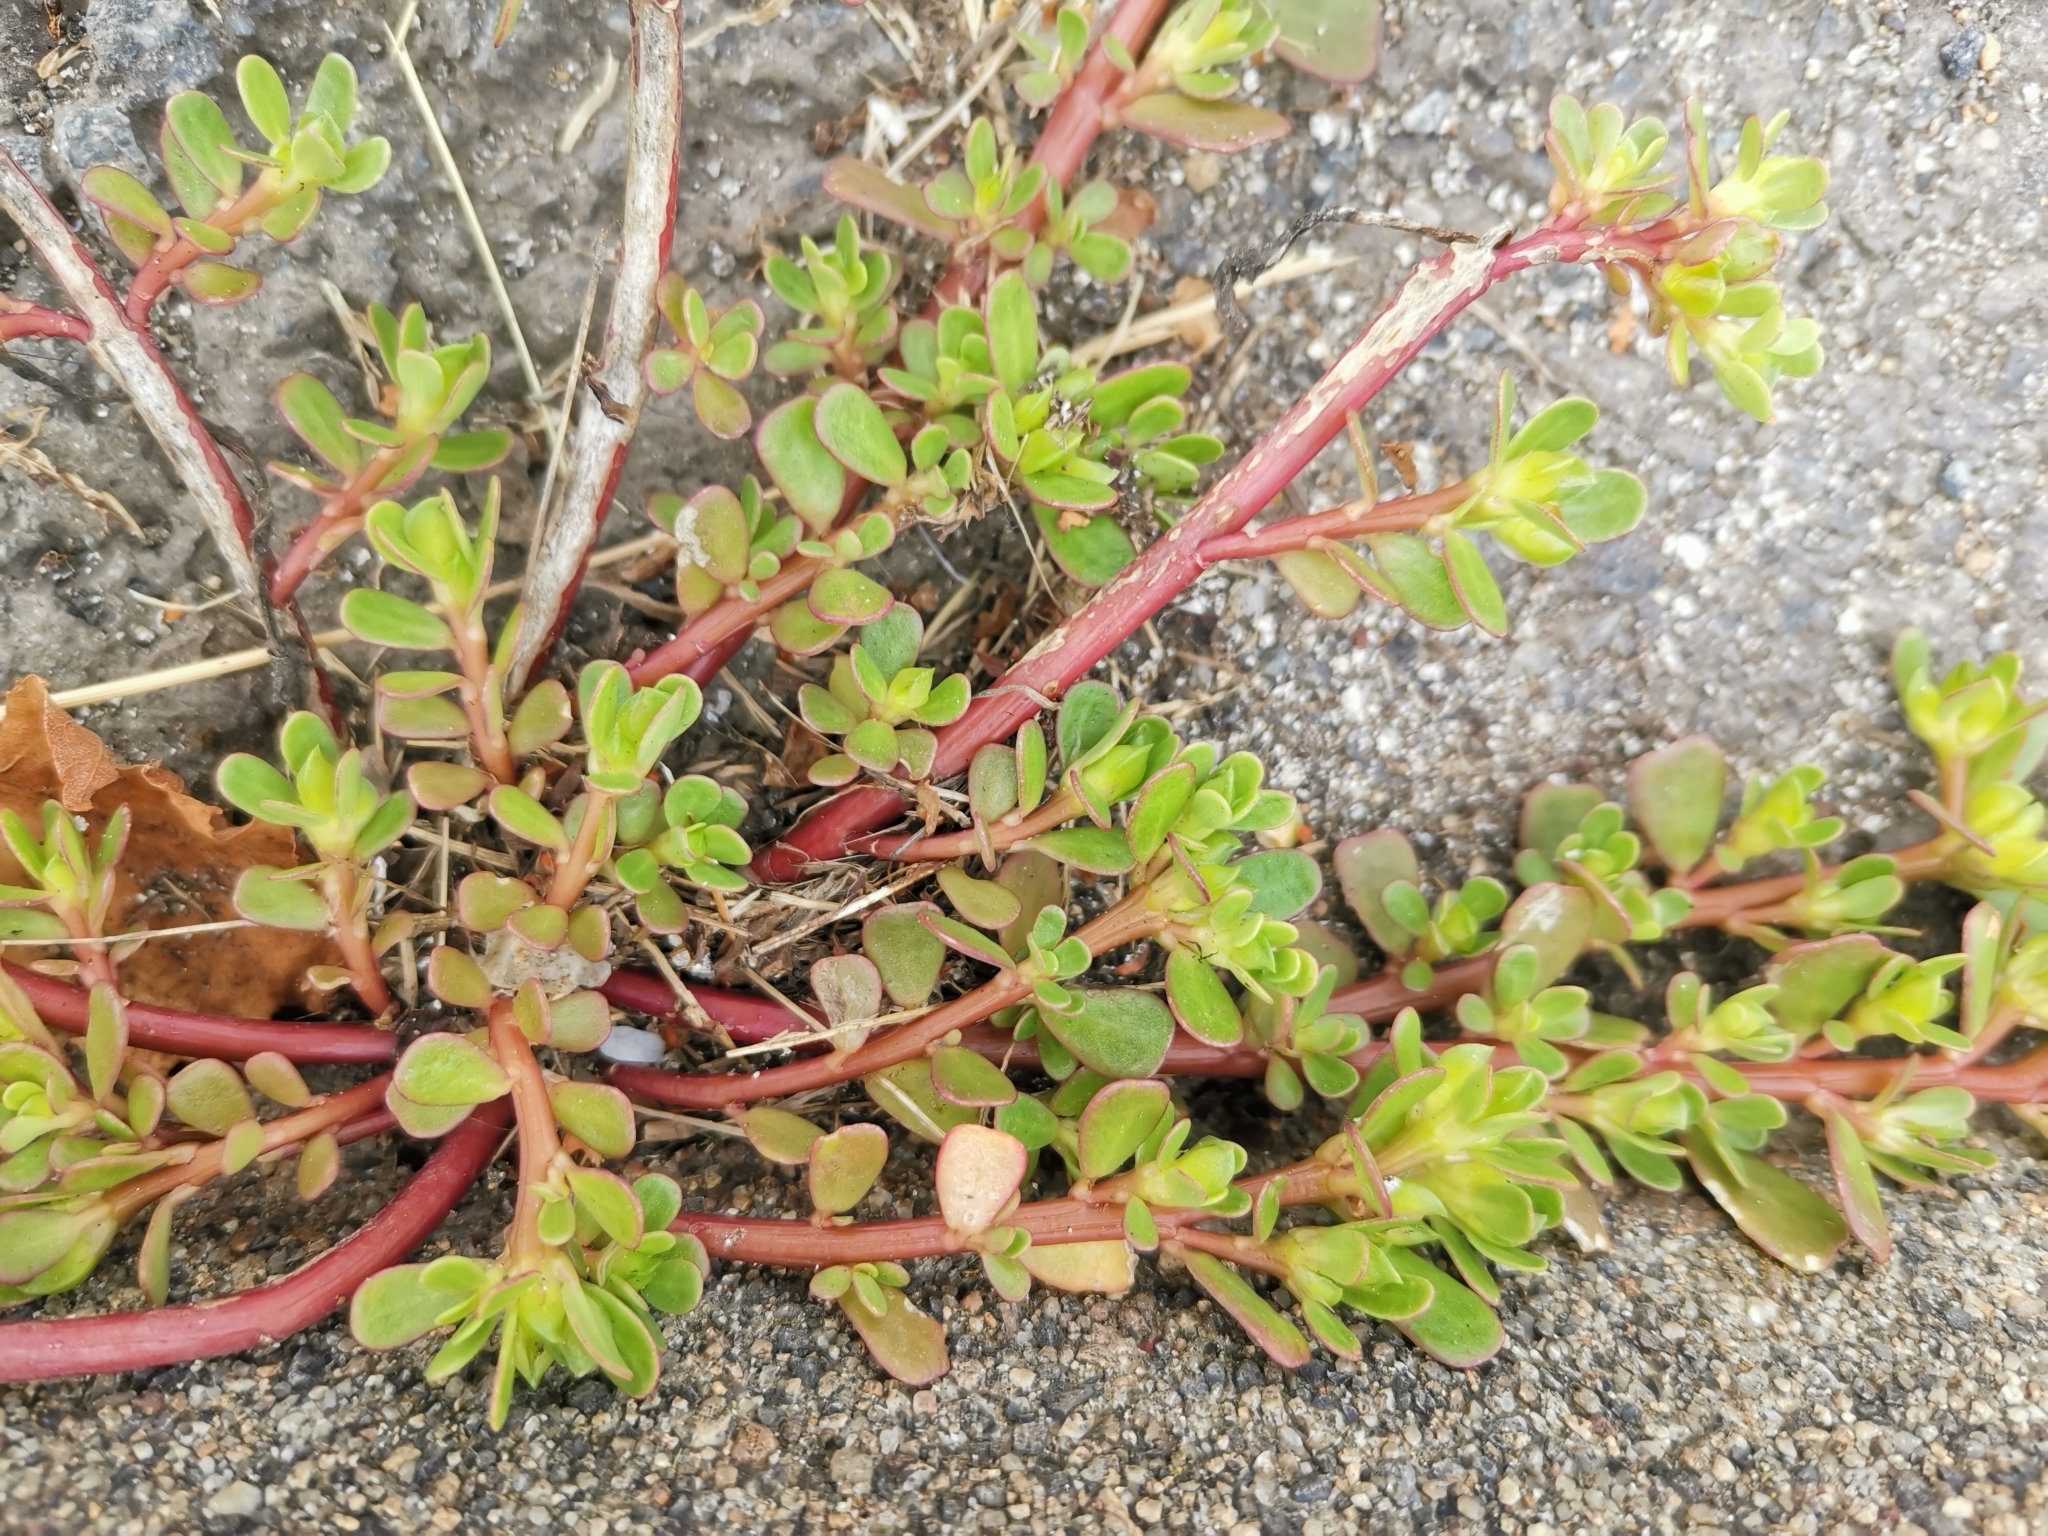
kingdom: Plantae
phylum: Tracheophyta
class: Magnoliopsida
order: Caryophyllales
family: Portulacaceae
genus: Portulaca
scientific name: Portulaca oleracea
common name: Common purslane
